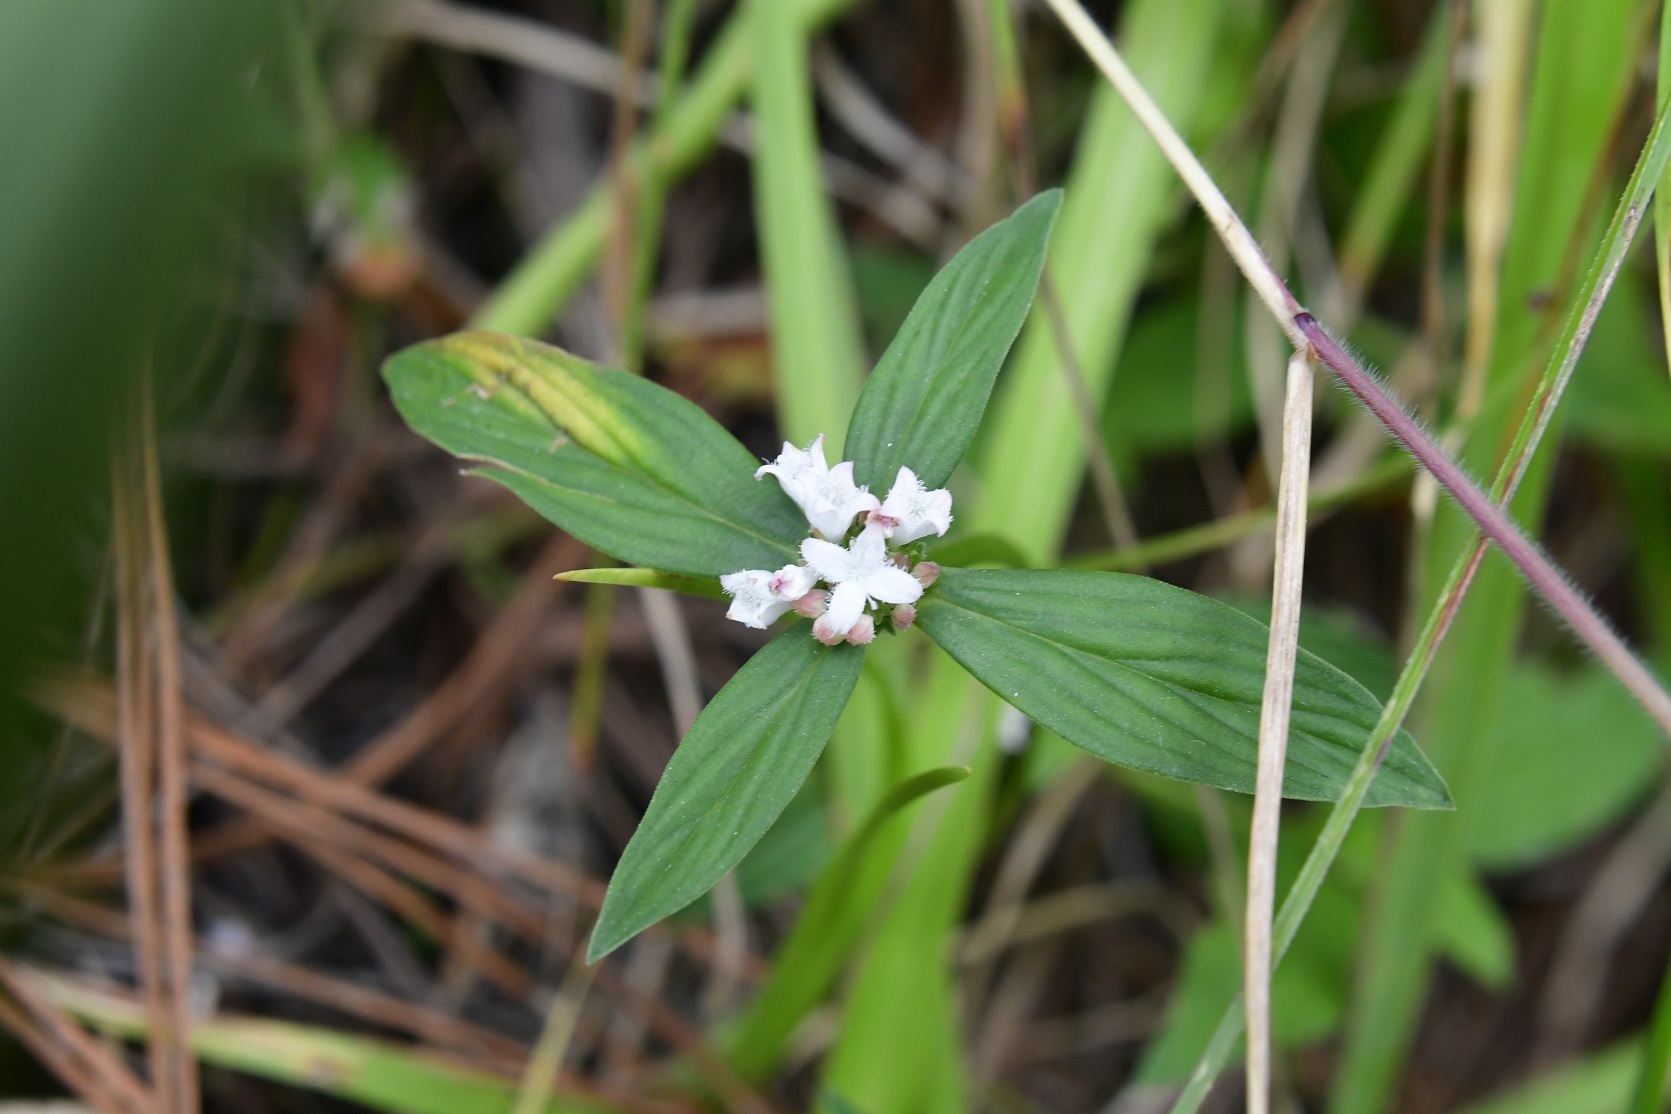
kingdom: Plantae
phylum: Tracheophyta
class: Magnoliopsida
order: Gentianales
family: Rubiaceae
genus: Spermacoce
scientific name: Spermacoce remota
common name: Woodland false buttonweed
